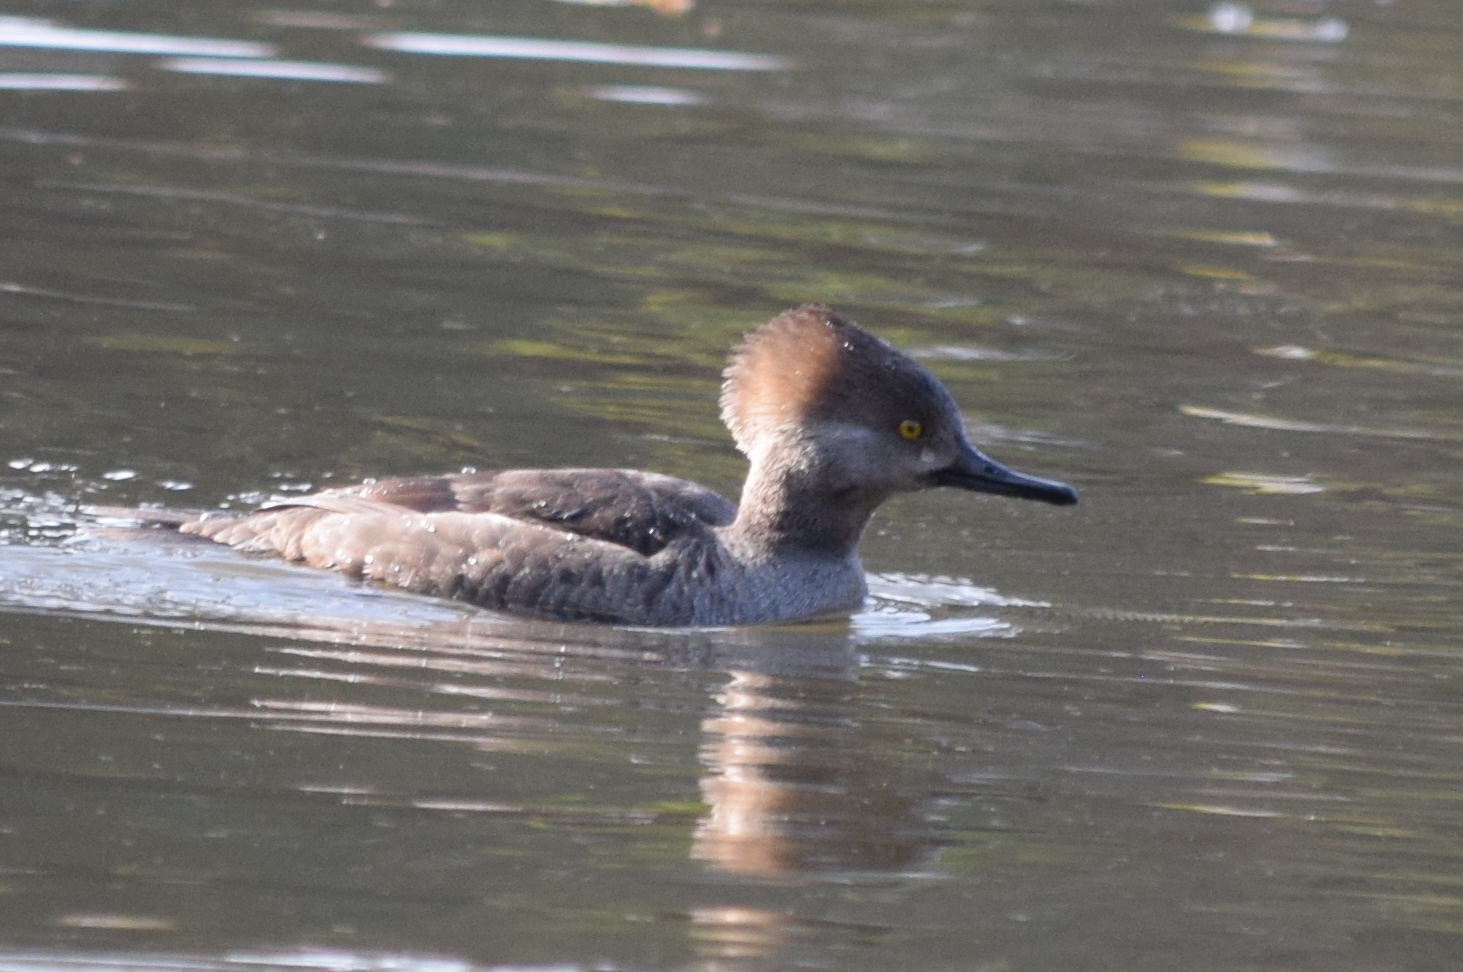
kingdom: Animalia
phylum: Chordata
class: Aves
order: Anseriformes
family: Anatidae
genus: Lophodytes
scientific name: Lophodytes cucullatus
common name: Hooded merganser
